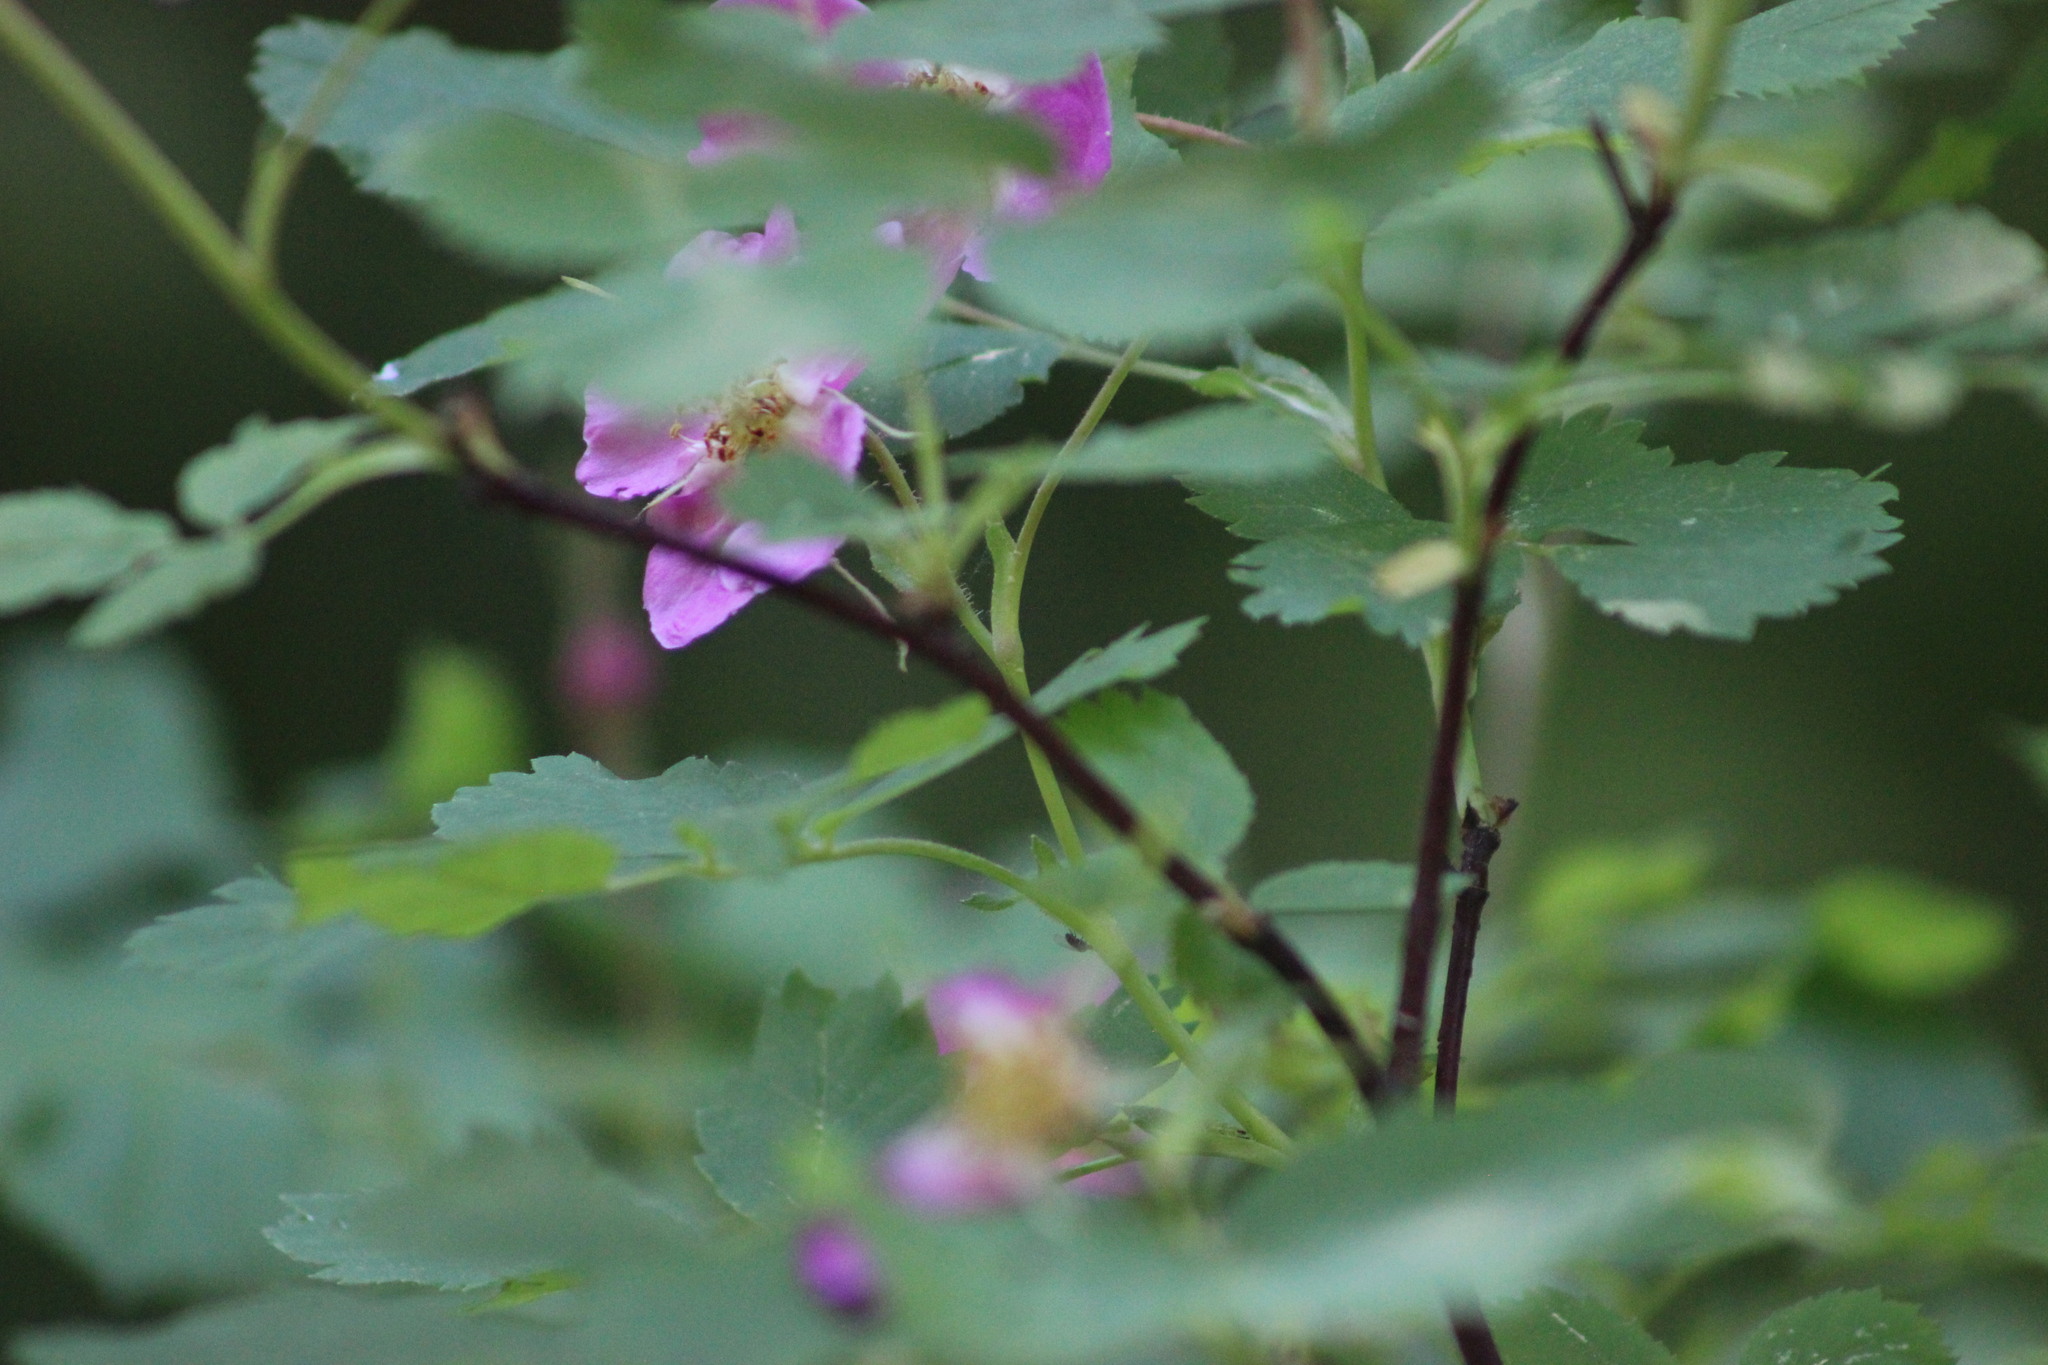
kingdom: Plantae
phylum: Tracheophyta
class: Magnoliopsida
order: Rosales
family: Rosaceae
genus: Rosa
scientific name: Rosa acicularis
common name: Prickly rose
